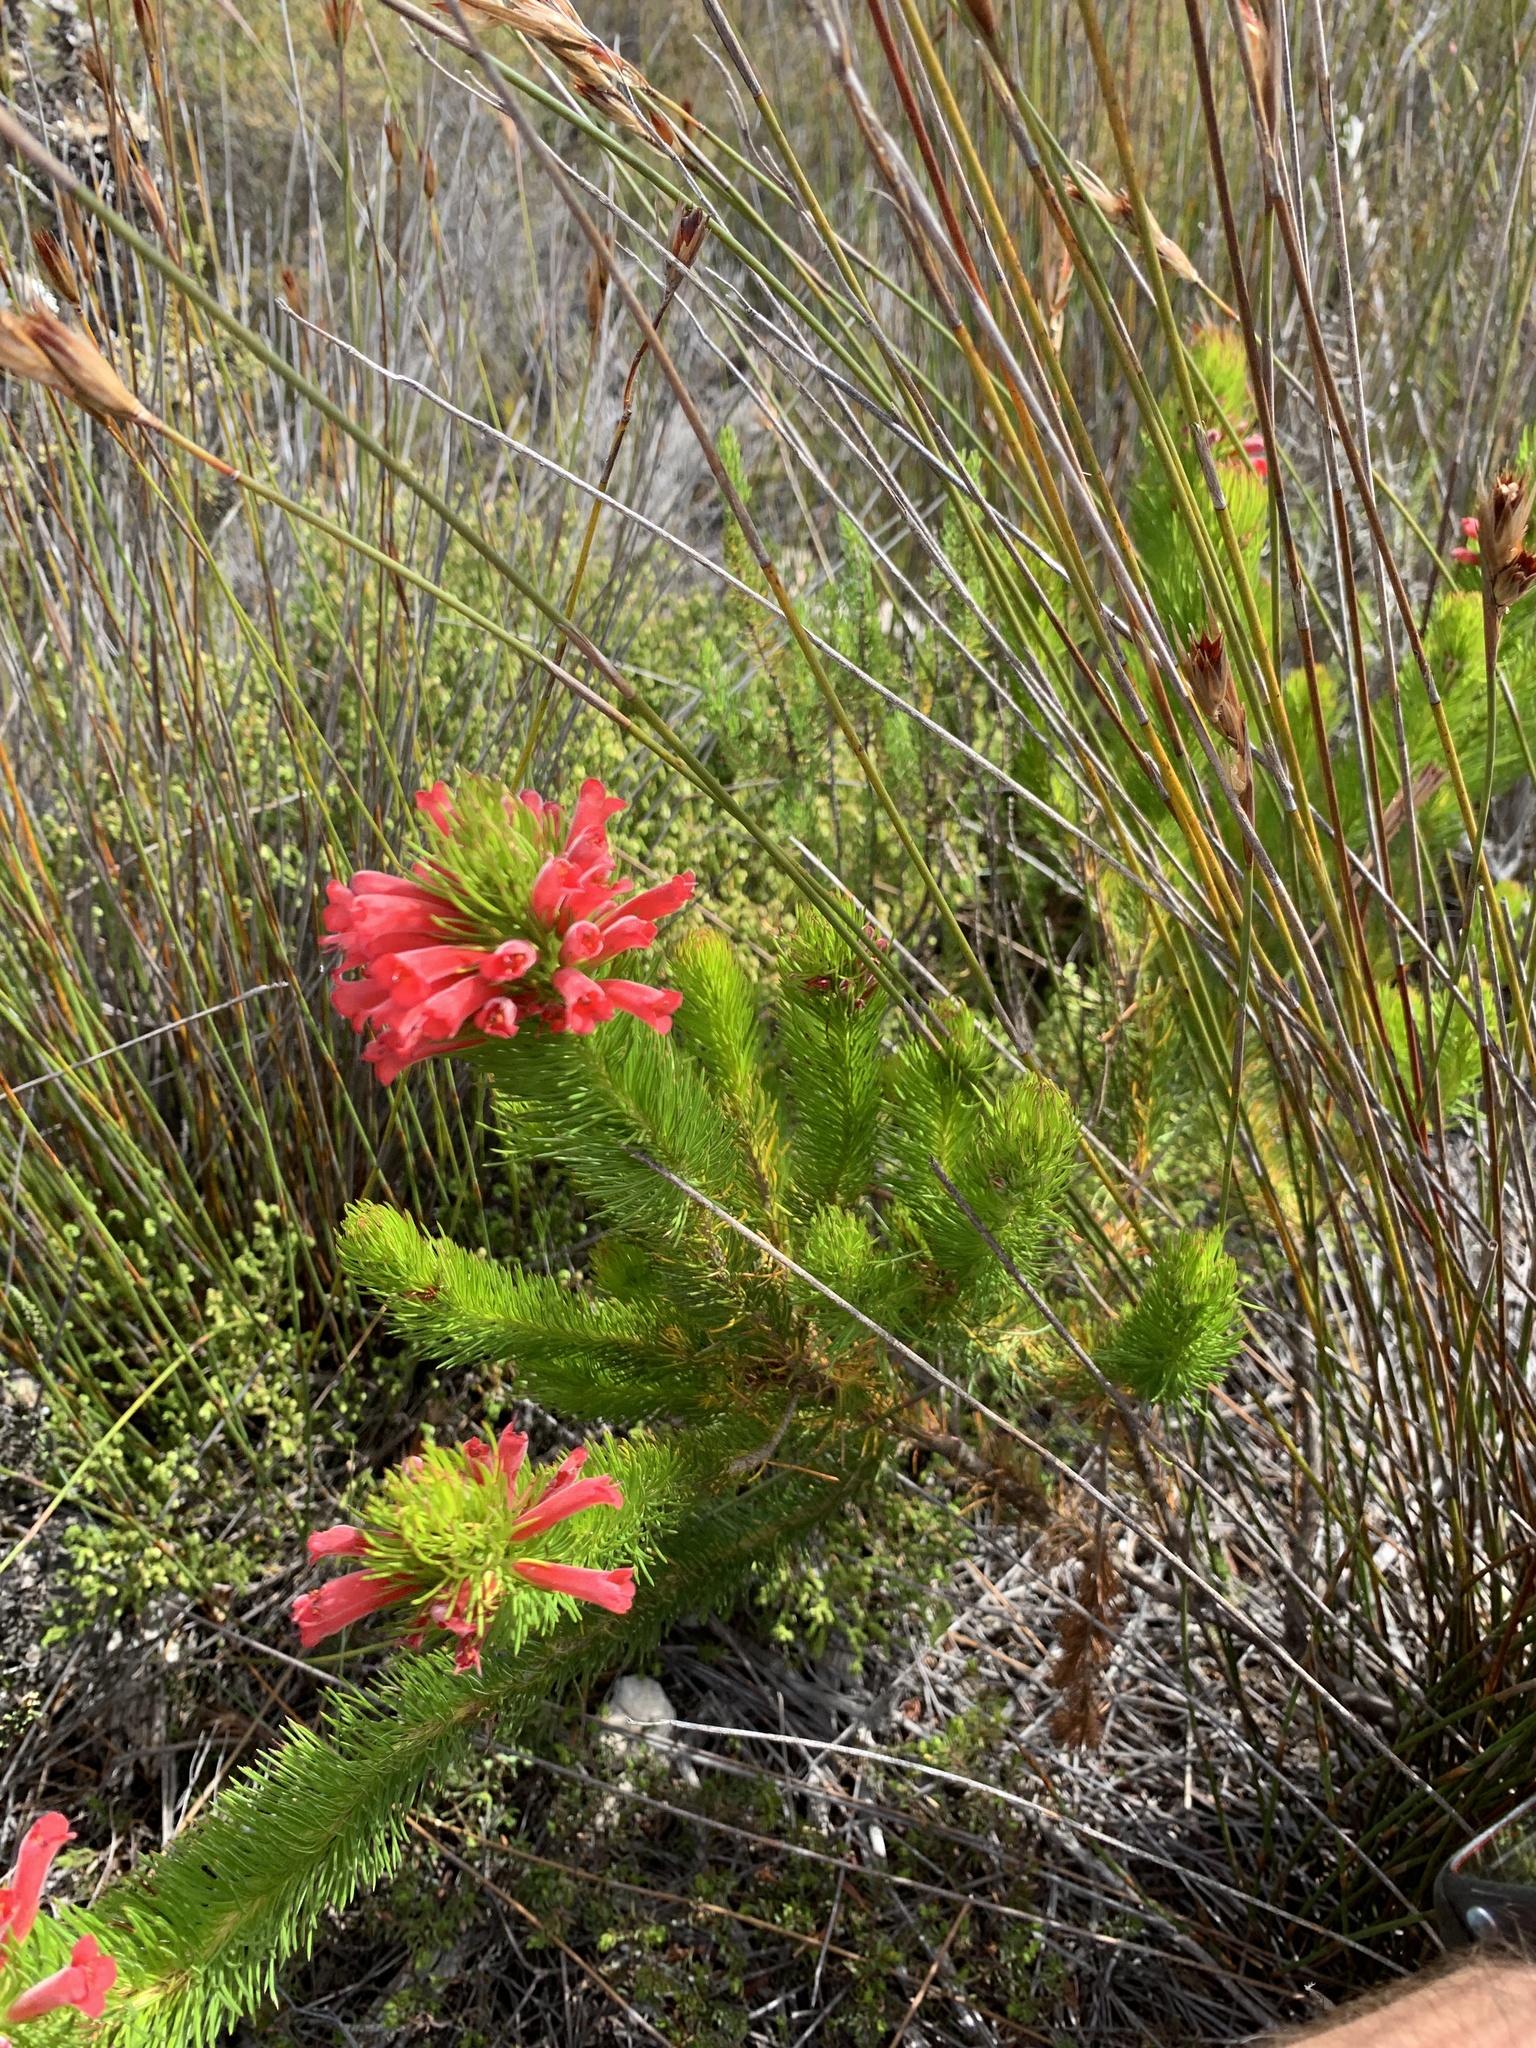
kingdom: Plantae
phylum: Tracheophyta
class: Magnoliopsida
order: Ericales
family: Ericaceae
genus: Erica
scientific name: Erica vestita
